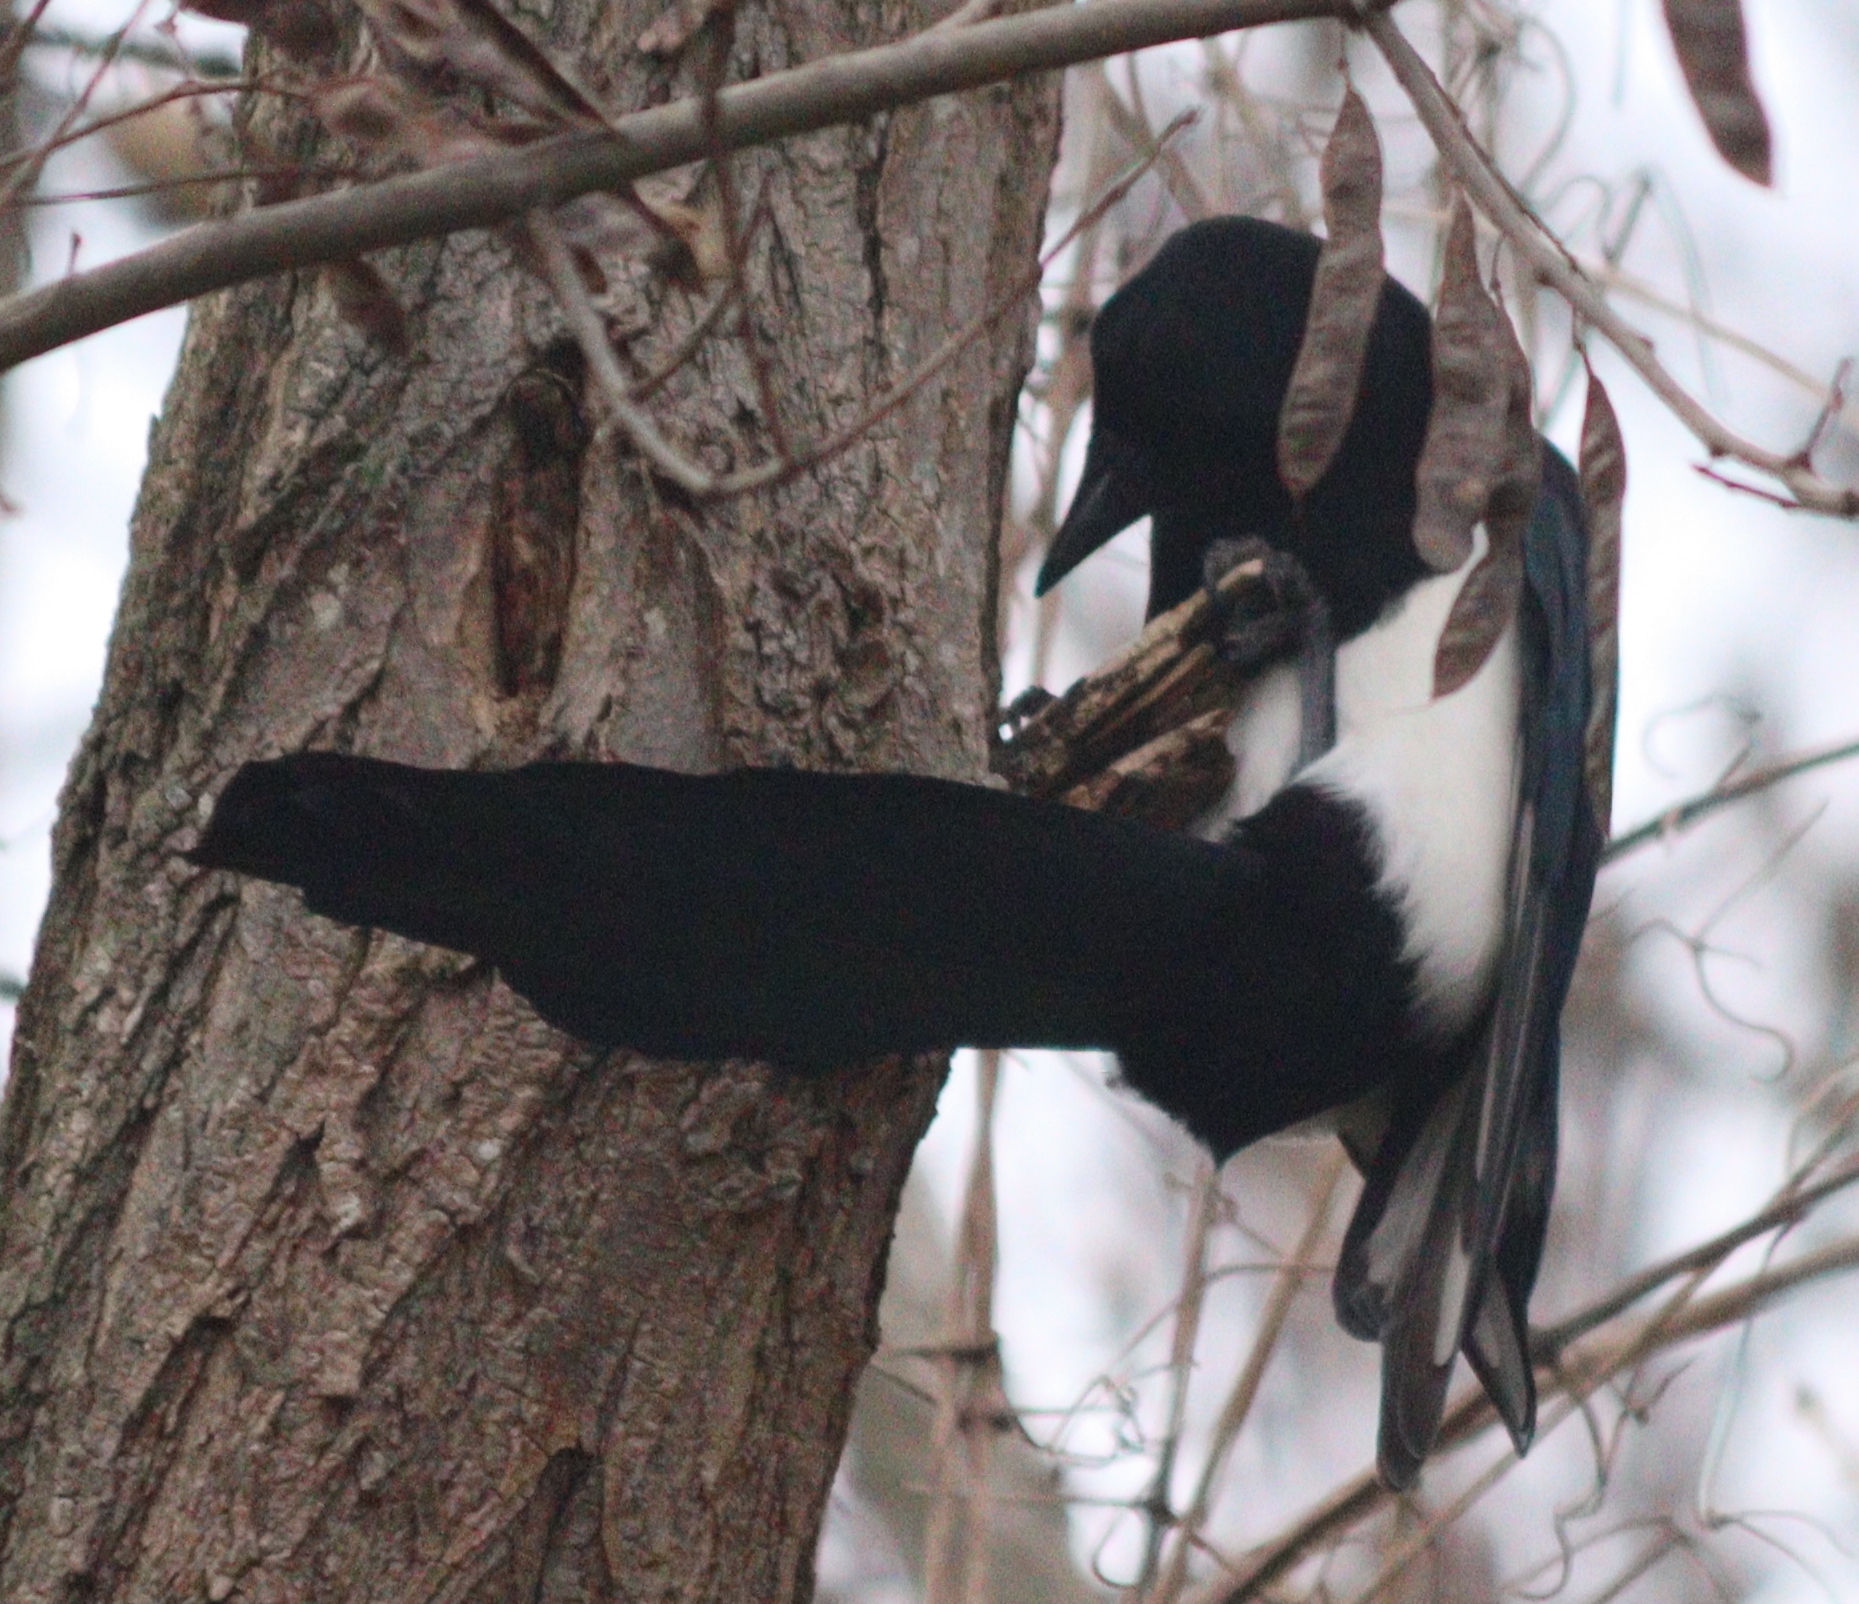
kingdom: Animalia
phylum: Chordata
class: Aves
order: Passeriformes
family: Corvidae
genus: Pica
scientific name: Pica pica
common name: Eurasian magpie
